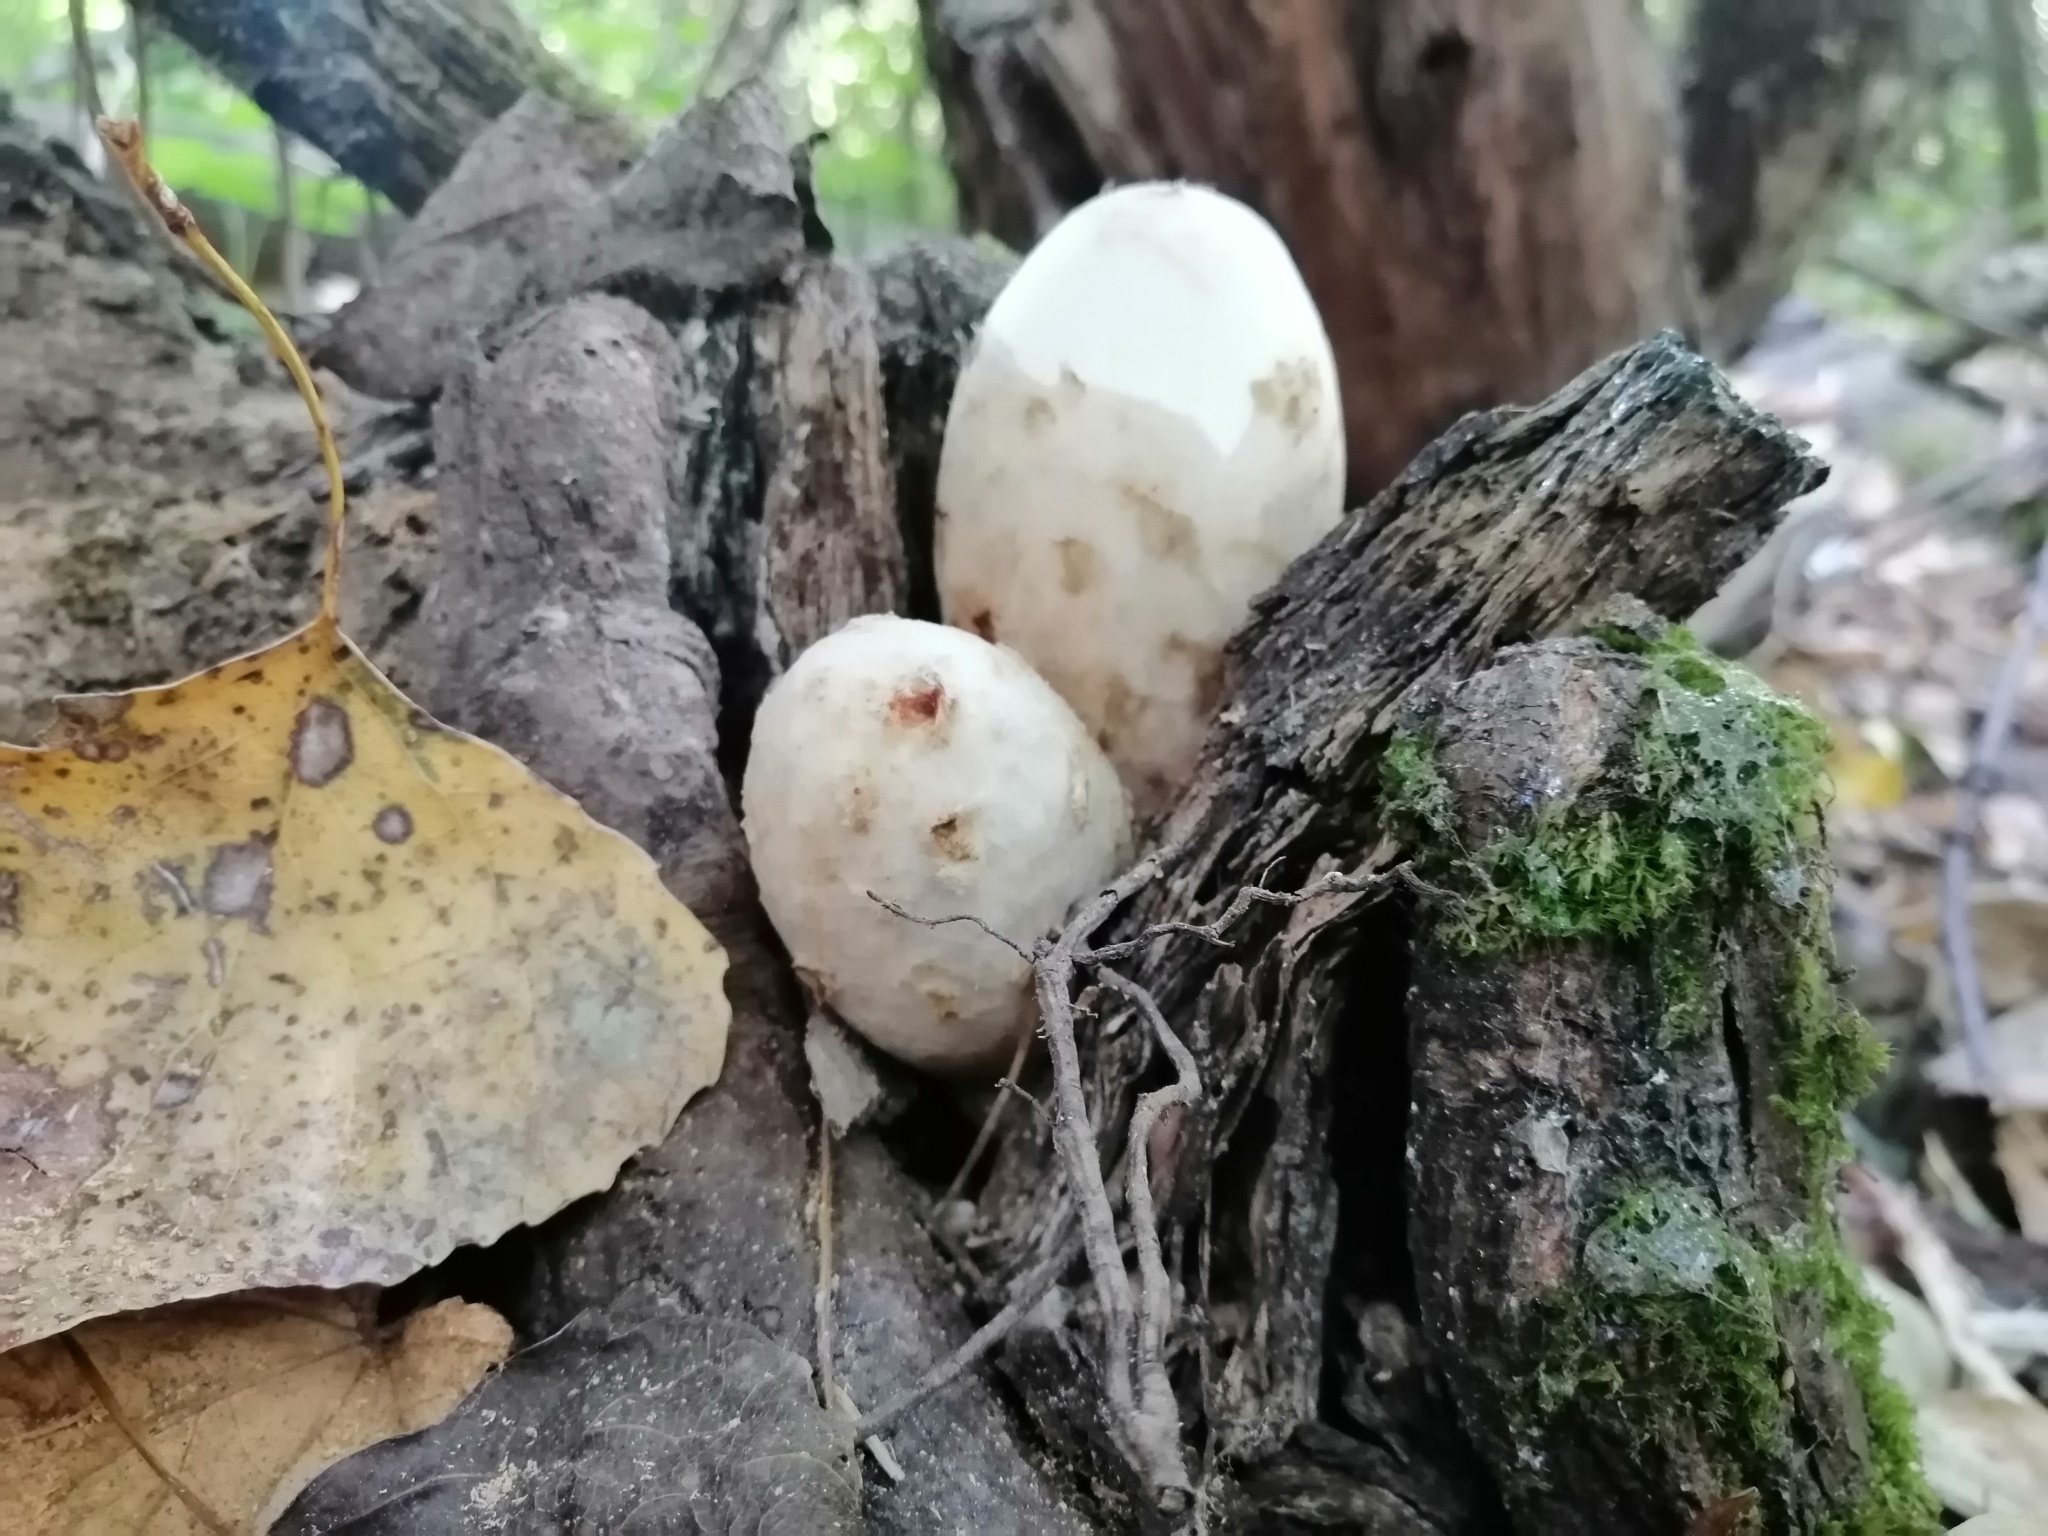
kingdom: Fungi
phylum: Basidiomycota
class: Agaricomycetes
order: Agaricales
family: Pluteaceae
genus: Volvariella
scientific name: Volvariella bombycina
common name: Silky rosegill
